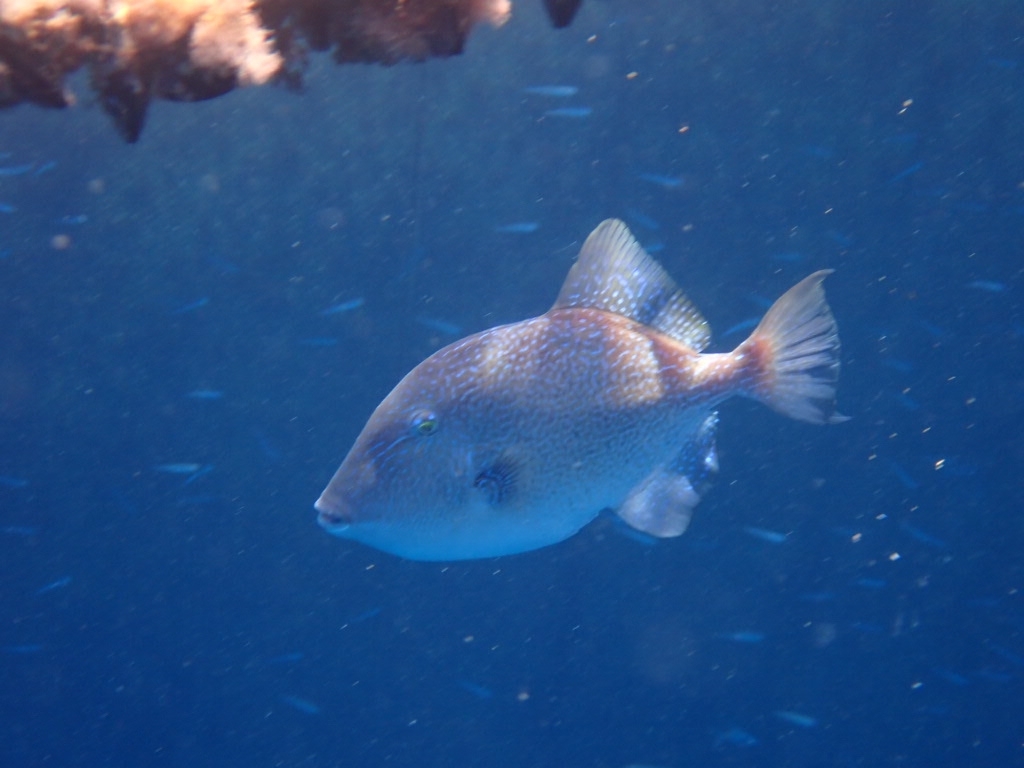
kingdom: Animalia
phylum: Chordata
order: Tetraodontiformes
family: Balistidae
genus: Balistes
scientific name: Balistes capriscus
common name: Grey triggerfish
